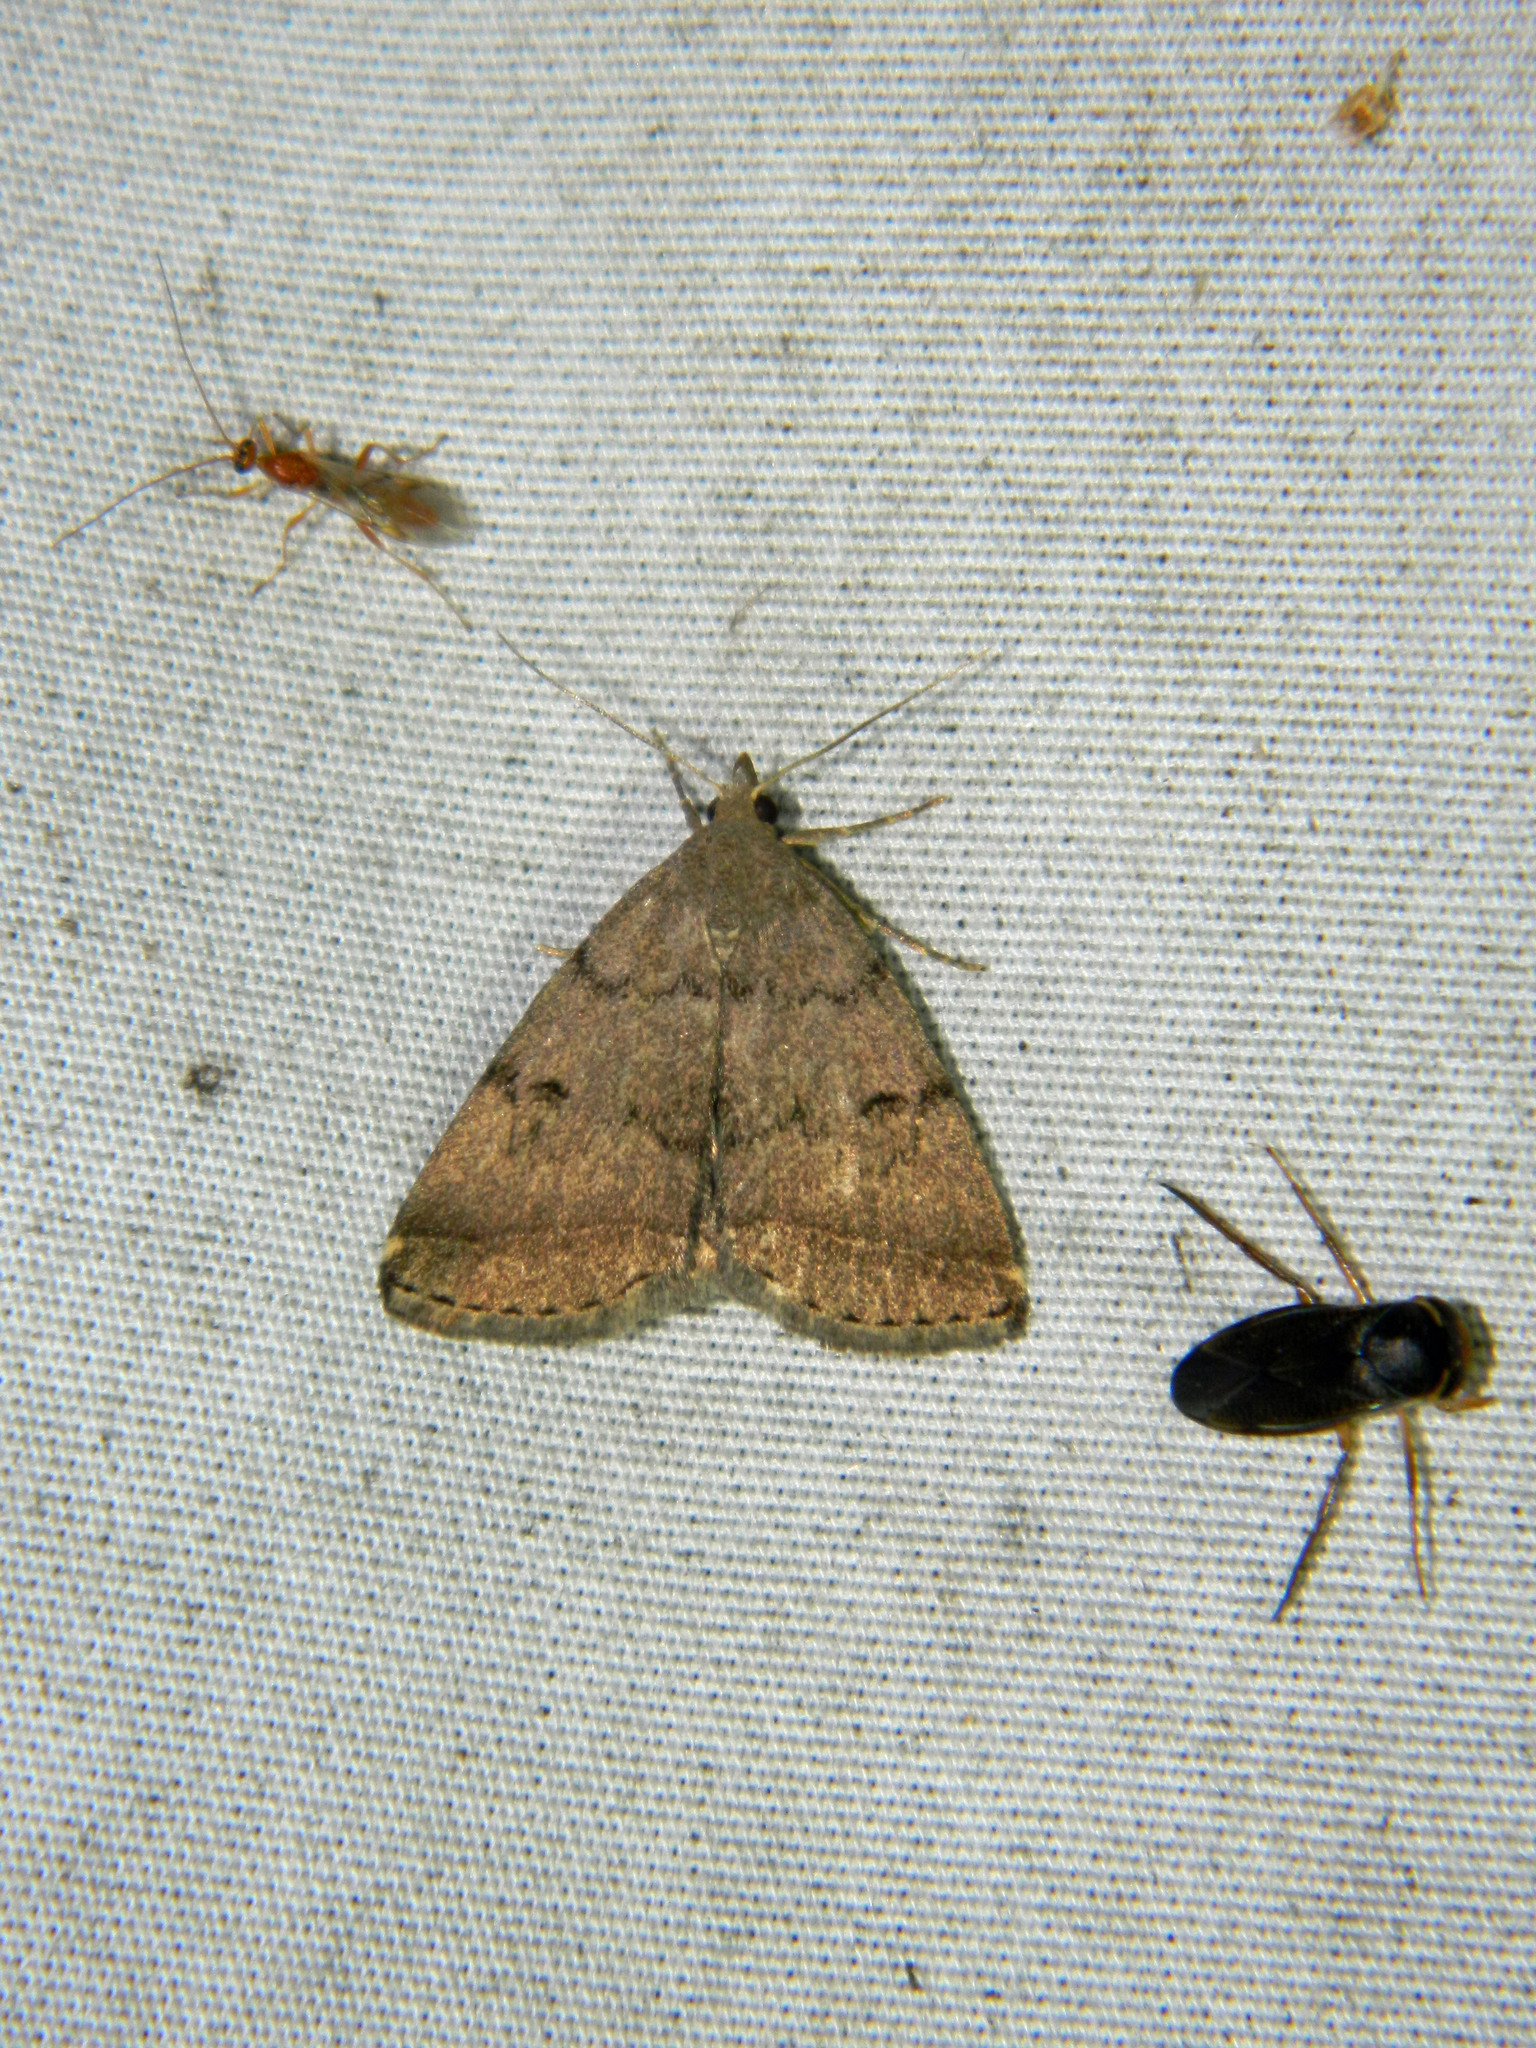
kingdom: Animalia
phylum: Arthropoda
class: Insecta
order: Lepidoptera
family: Erebidae
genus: Zanclognatha
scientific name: Zanclognatha dentata
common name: Toothed fan-foot
